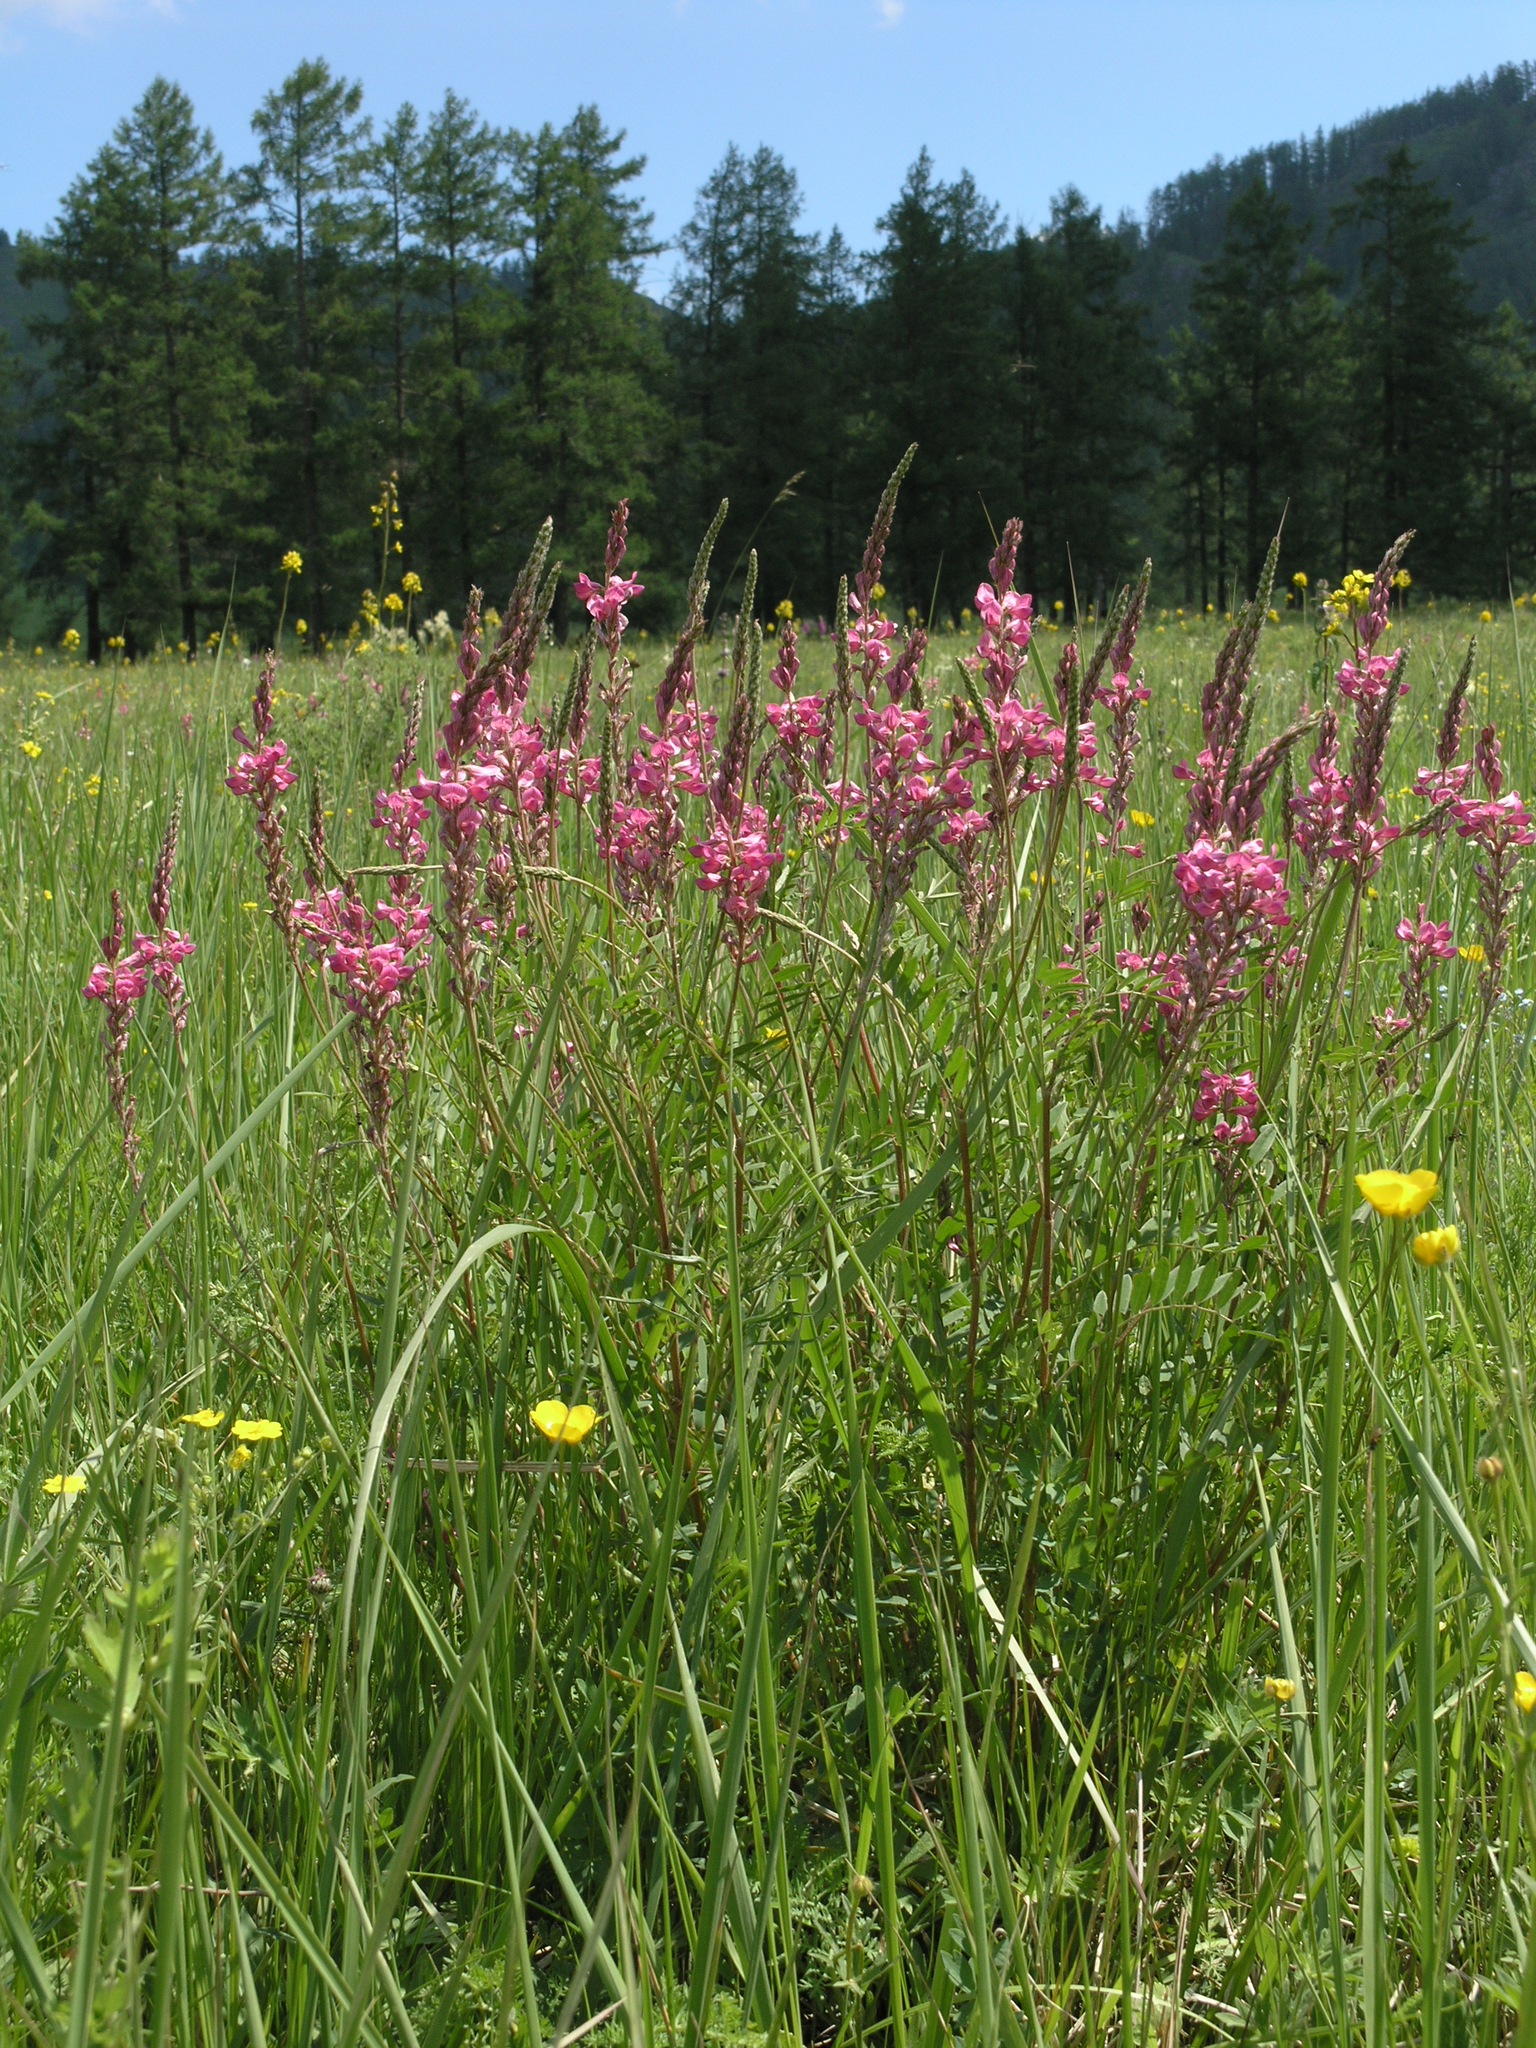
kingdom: Plantae
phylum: Tracheophyta
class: Magnoliopsida
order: Fabales
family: Fabaceae
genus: Onobrychis
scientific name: Onobrychis arenaria
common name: Sand esparcet
